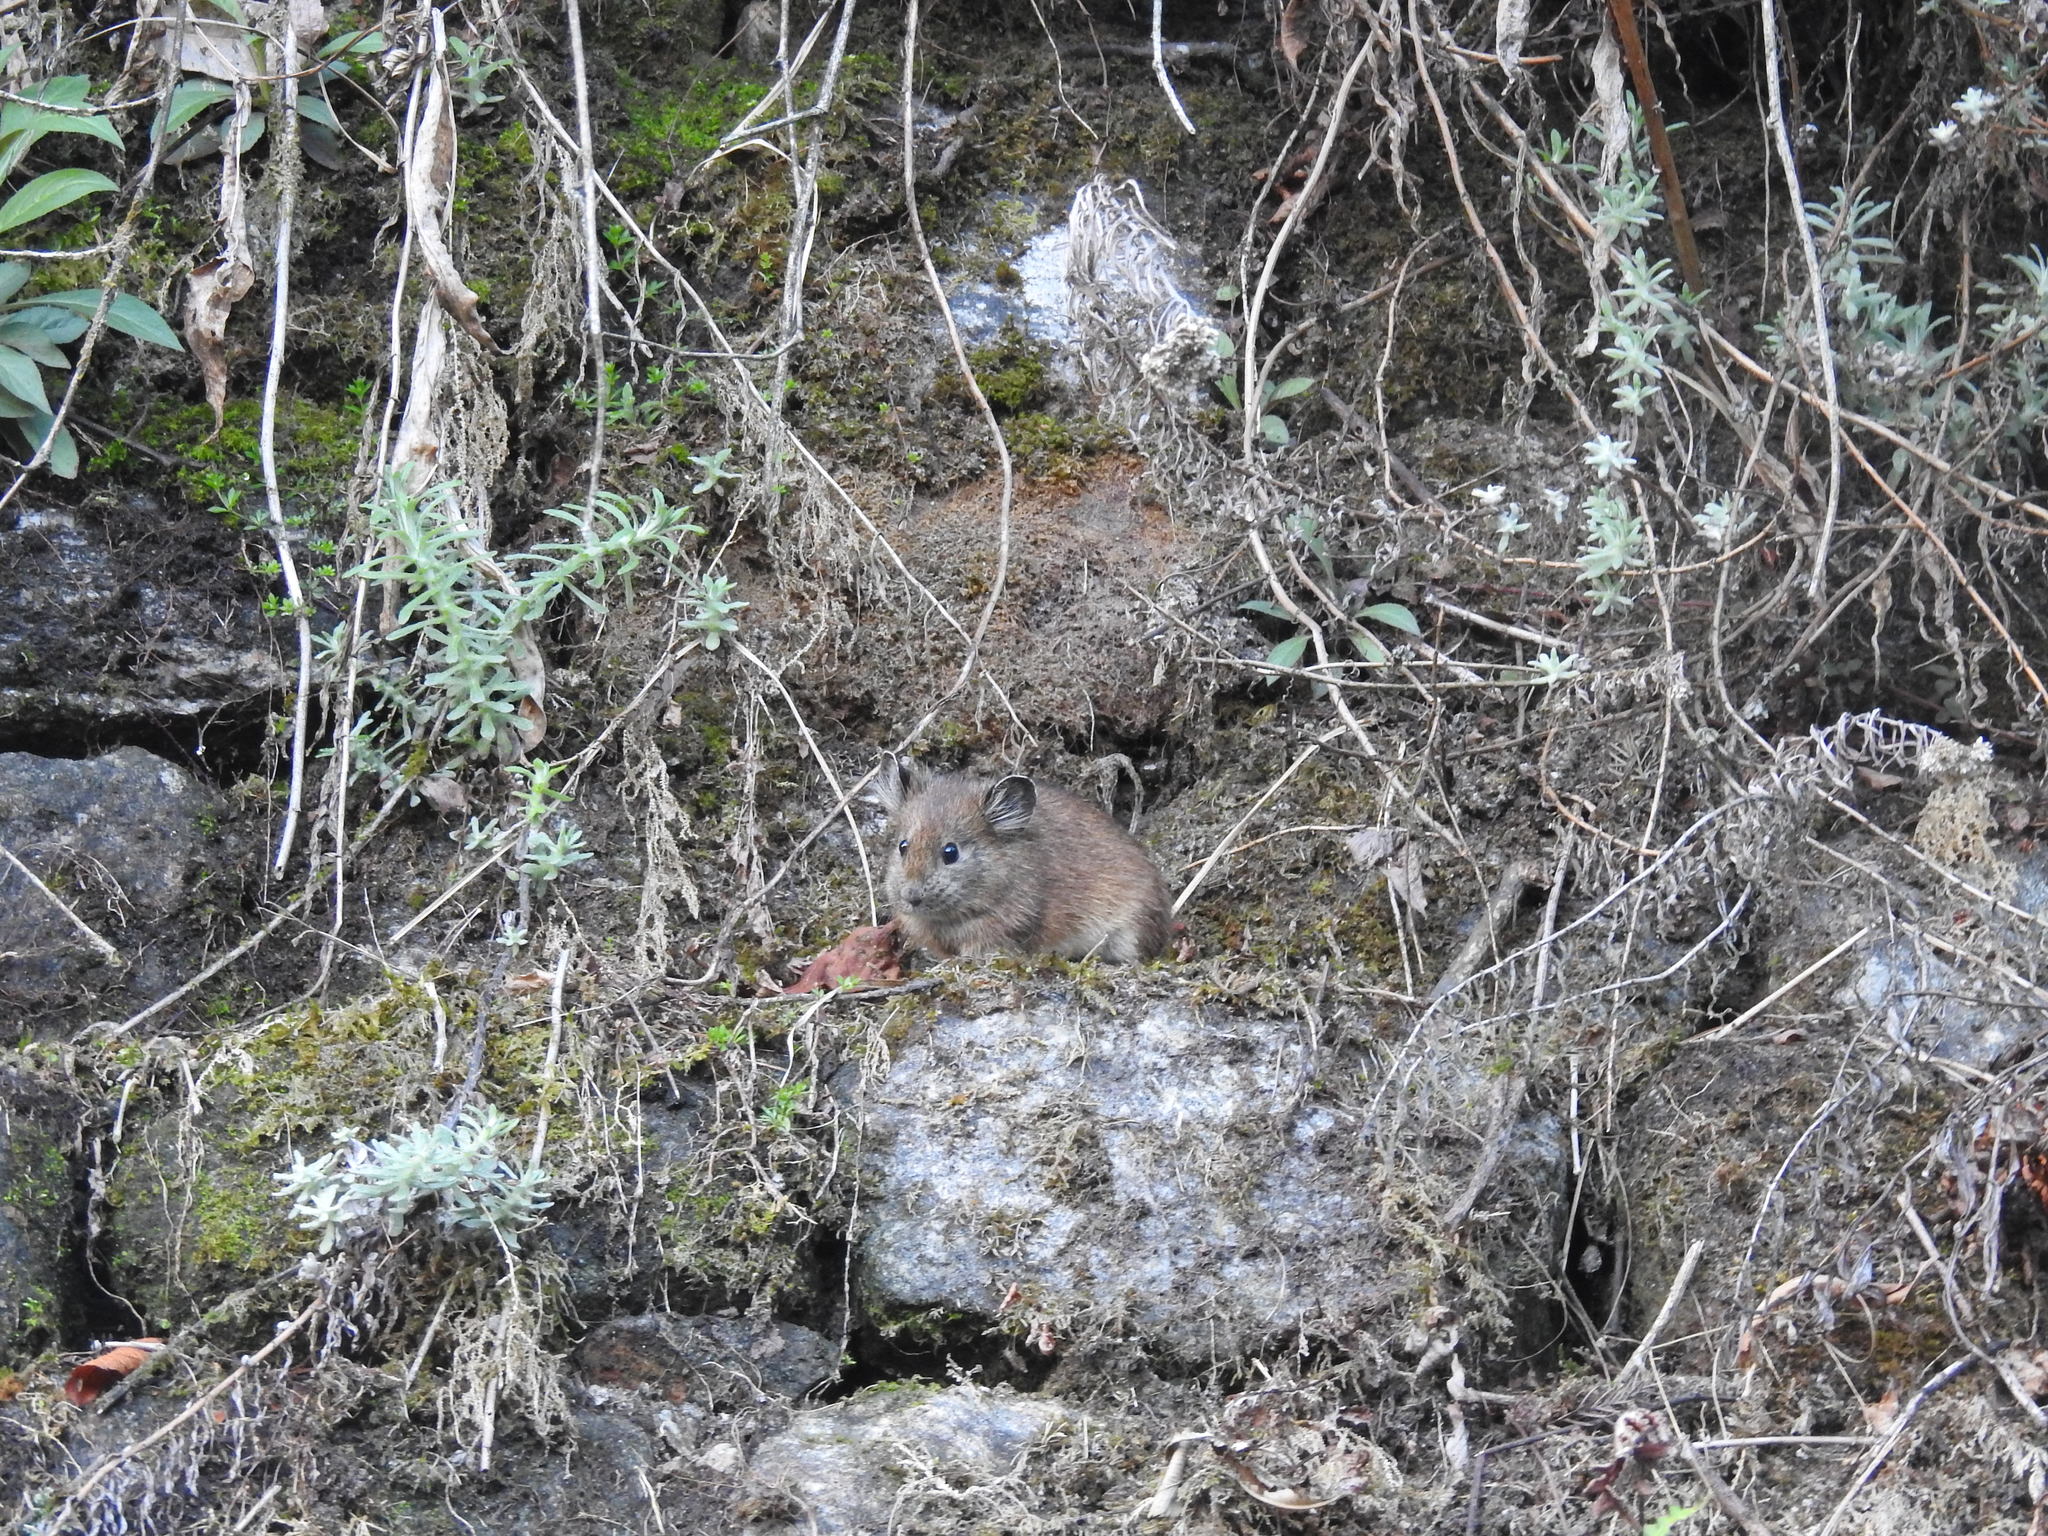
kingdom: Animalia
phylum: Chordata
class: Mammalia
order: Lagomorpha
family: Ochotonidae
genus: Ochotona
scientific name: Ochotona macrotis
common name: Large-eared pika
